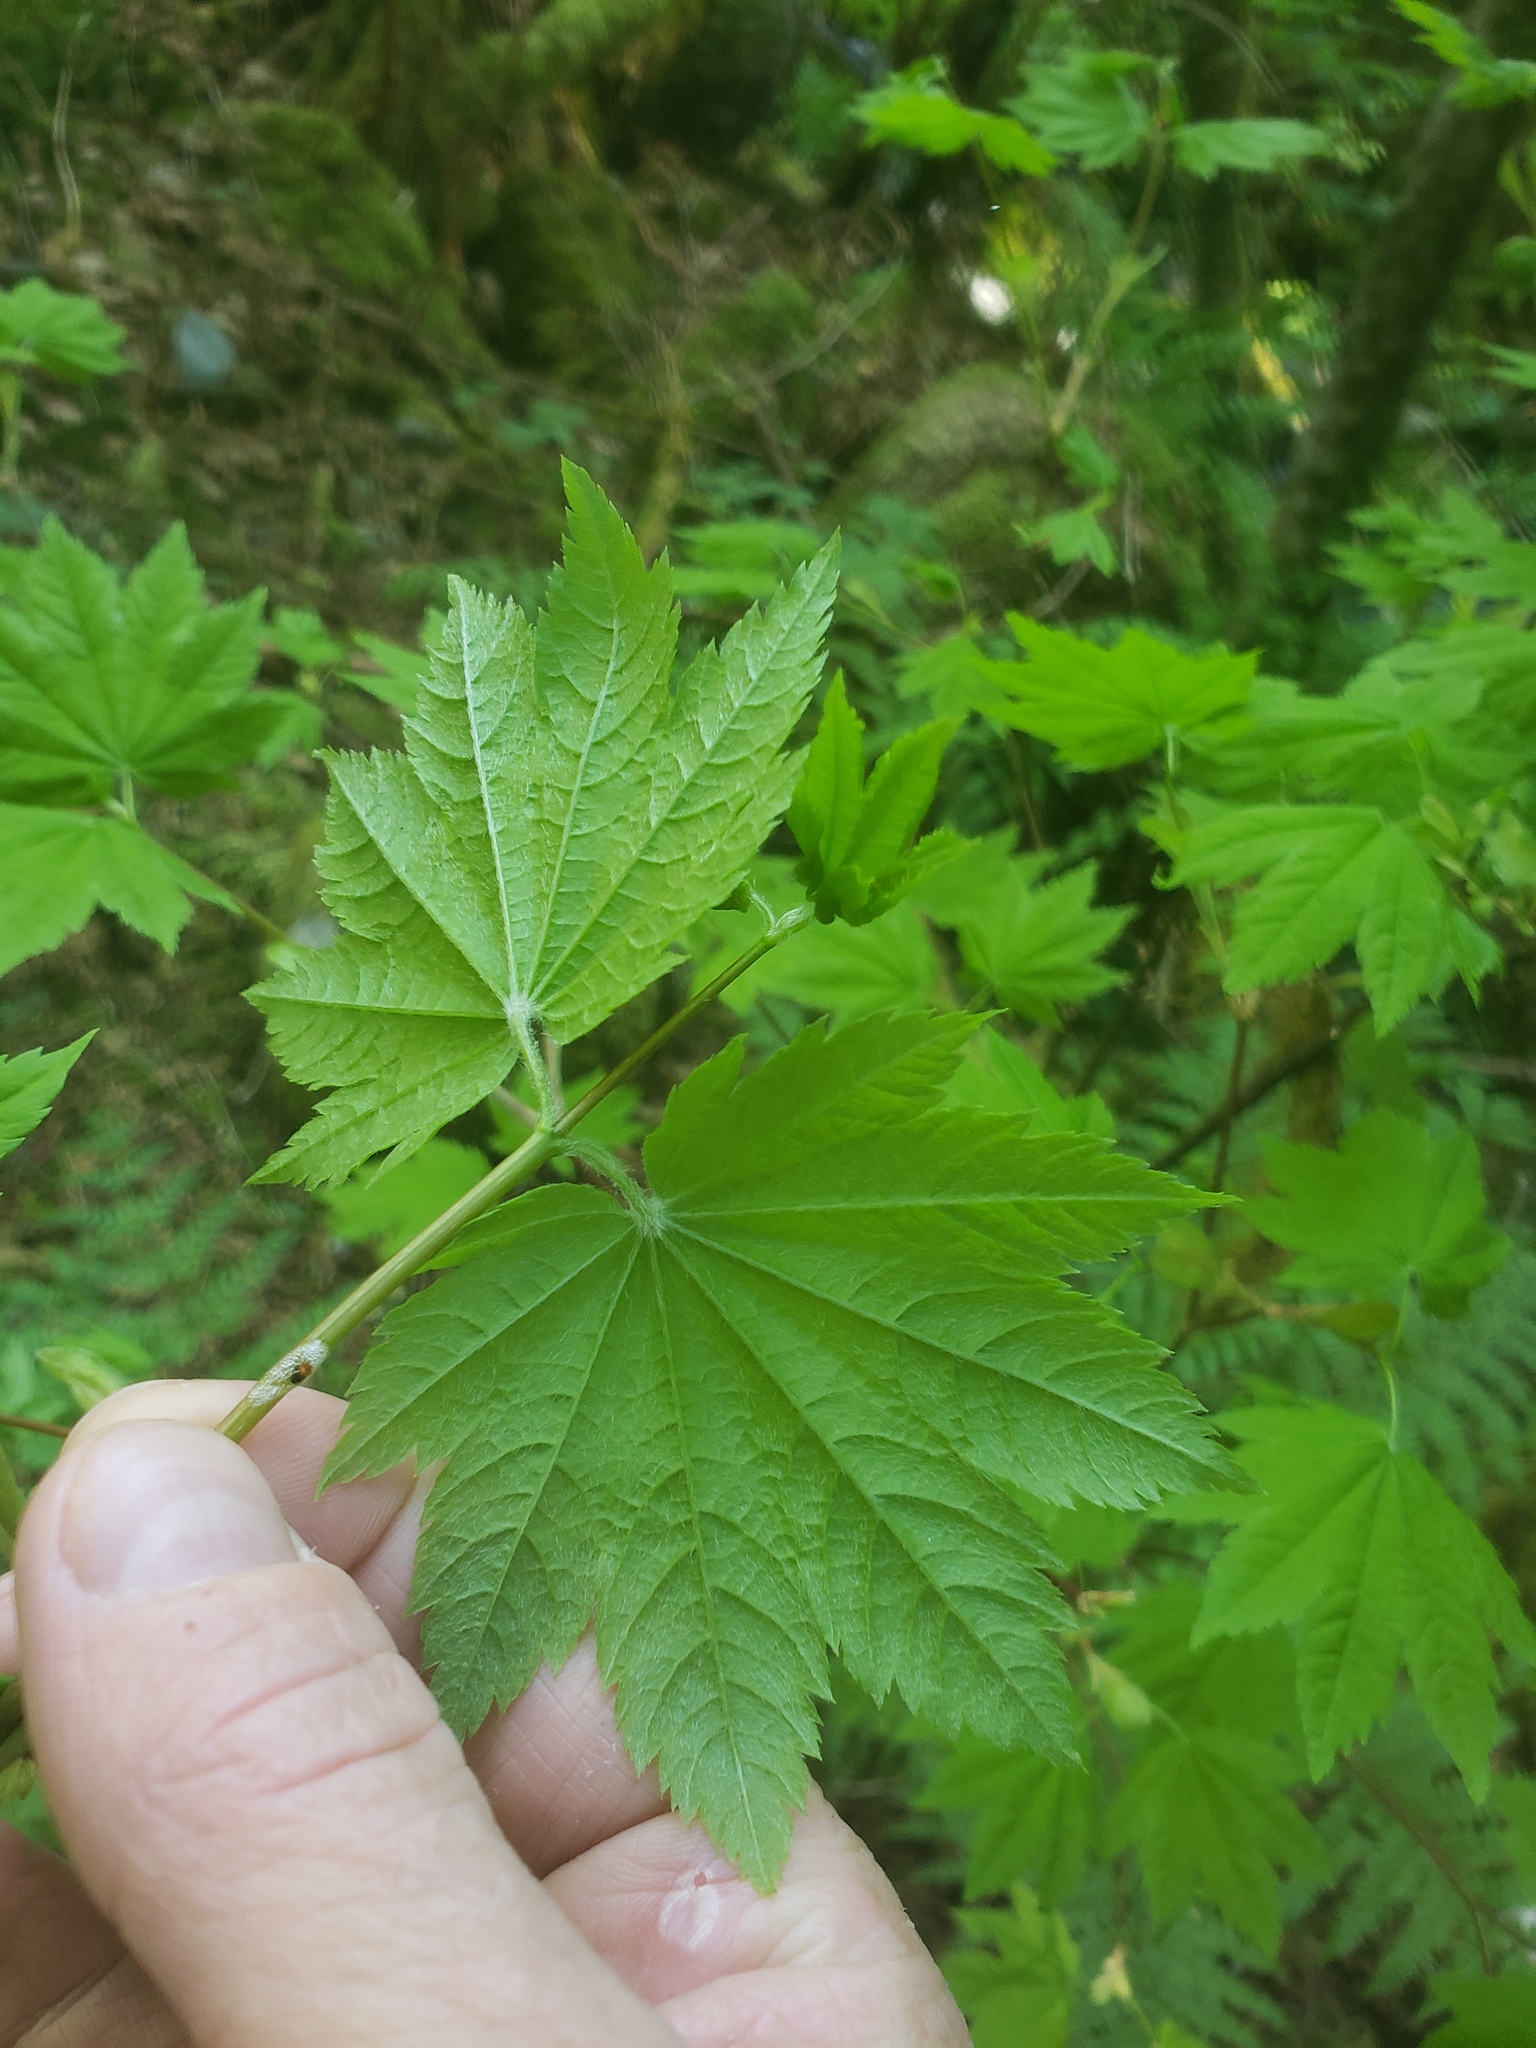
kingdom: Plantae
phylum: Tracheophyta
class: Magnoliopsida
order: Sapindales
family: Sapindaceae
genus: Acer
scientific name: Acer circinatum
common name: Vine maple
